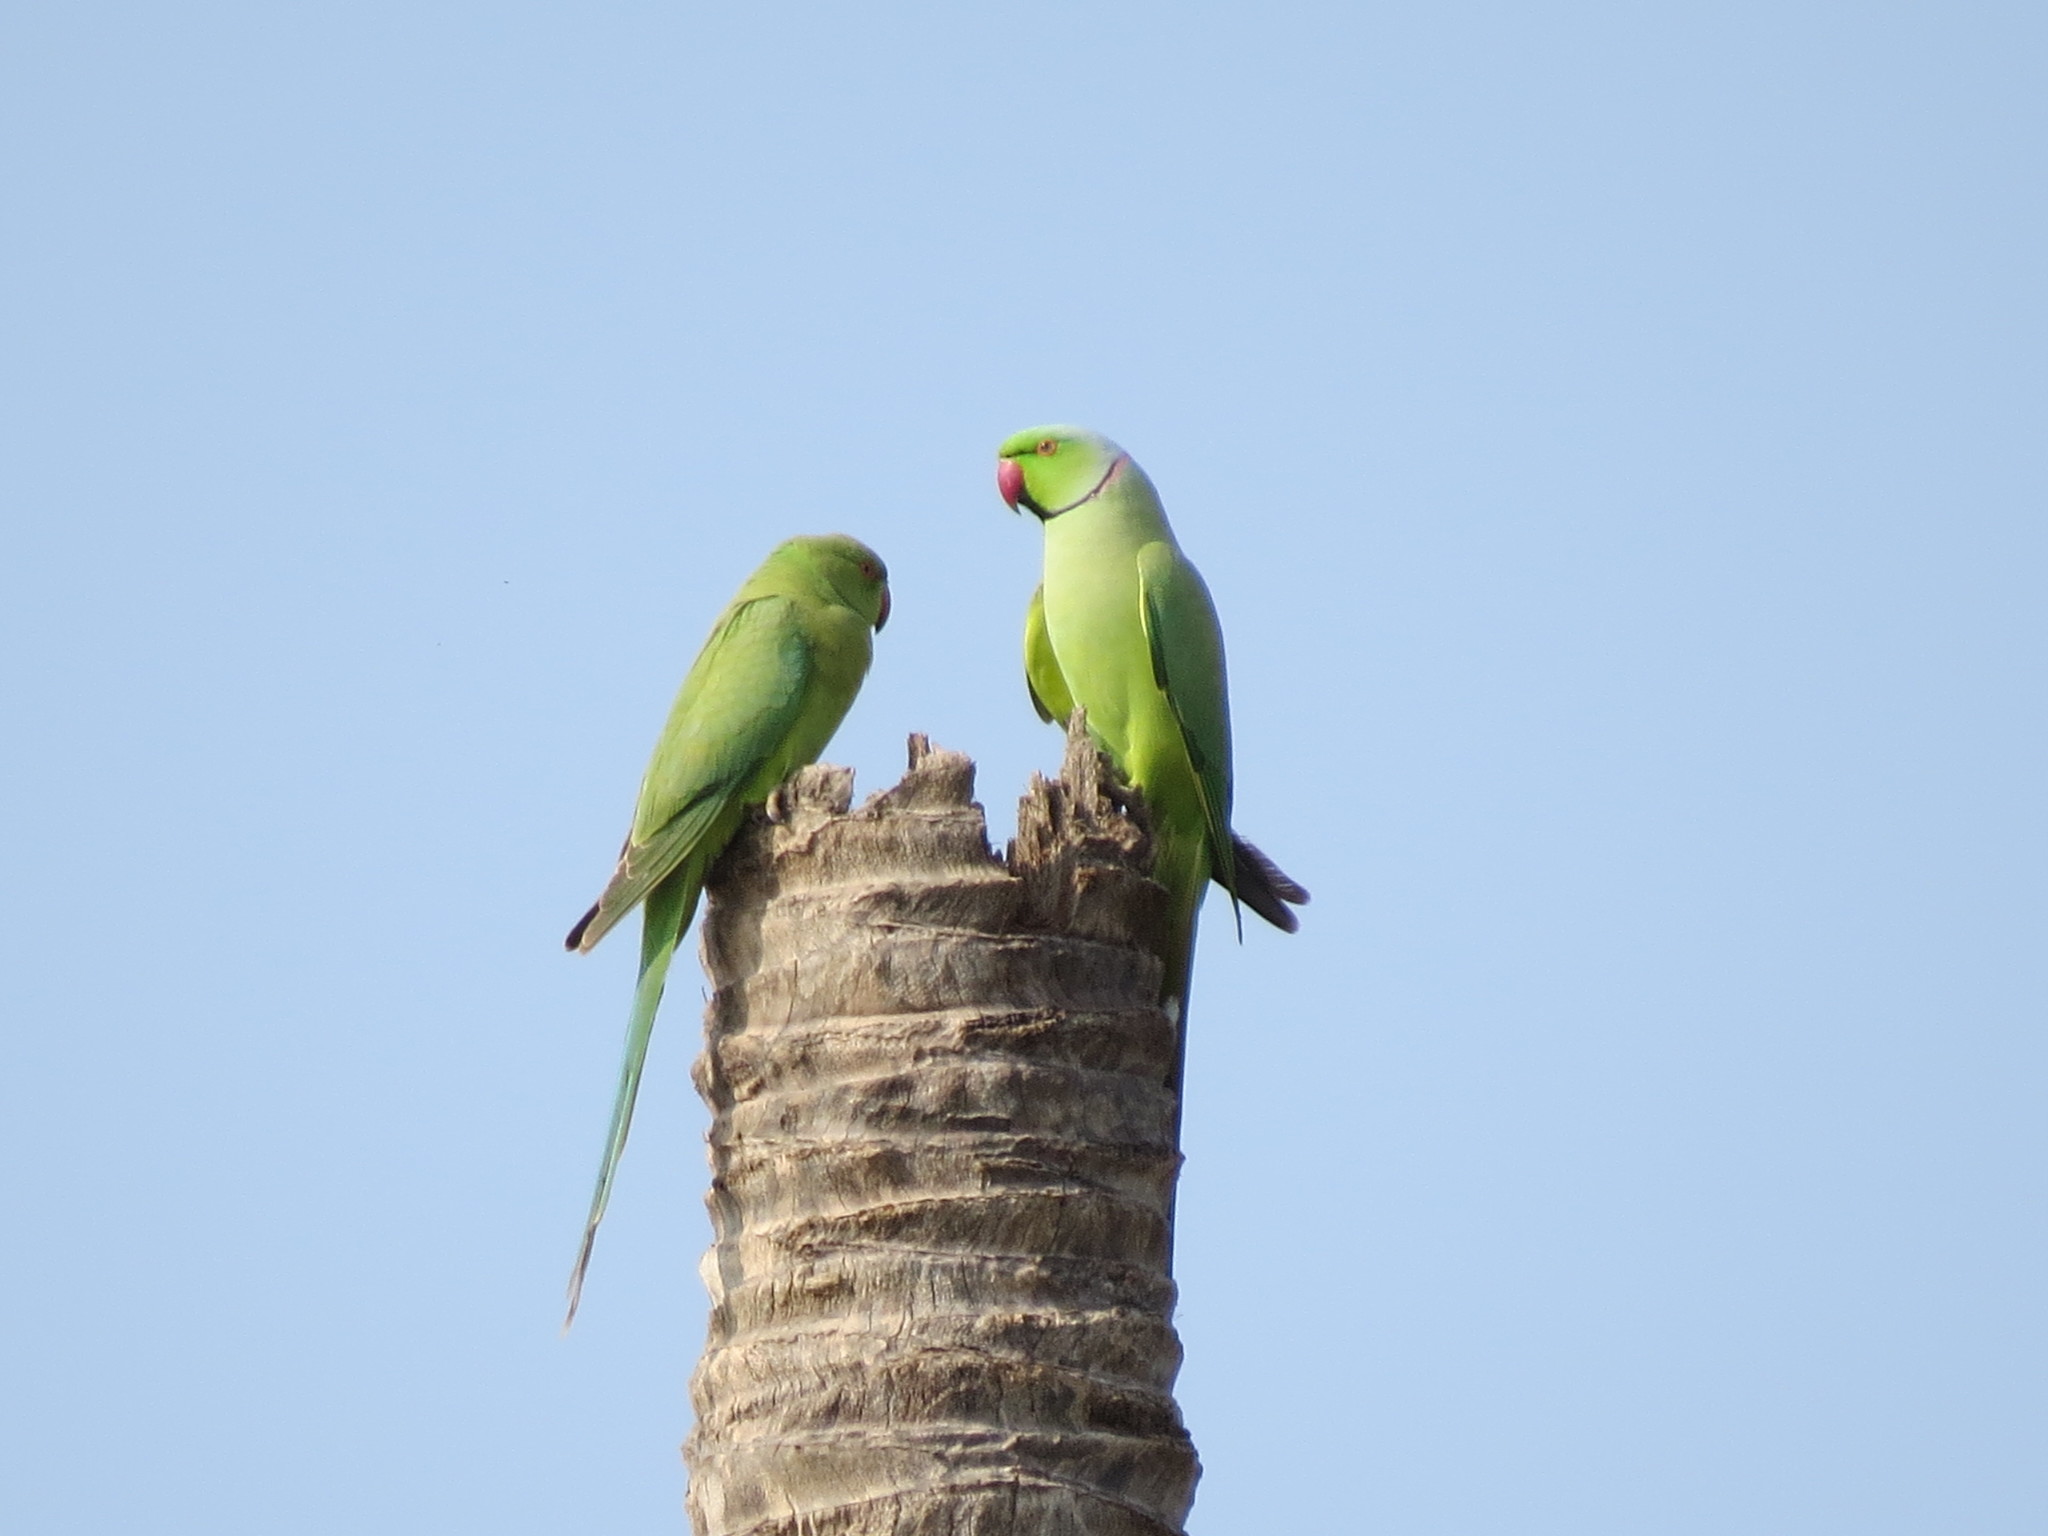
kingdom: Animalia
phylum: Chordata
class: Aves
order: Psittaciformes
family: Psittacidae
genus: Psittacula
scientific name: Psittacula krameri
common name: Rose-ringed parakeet
